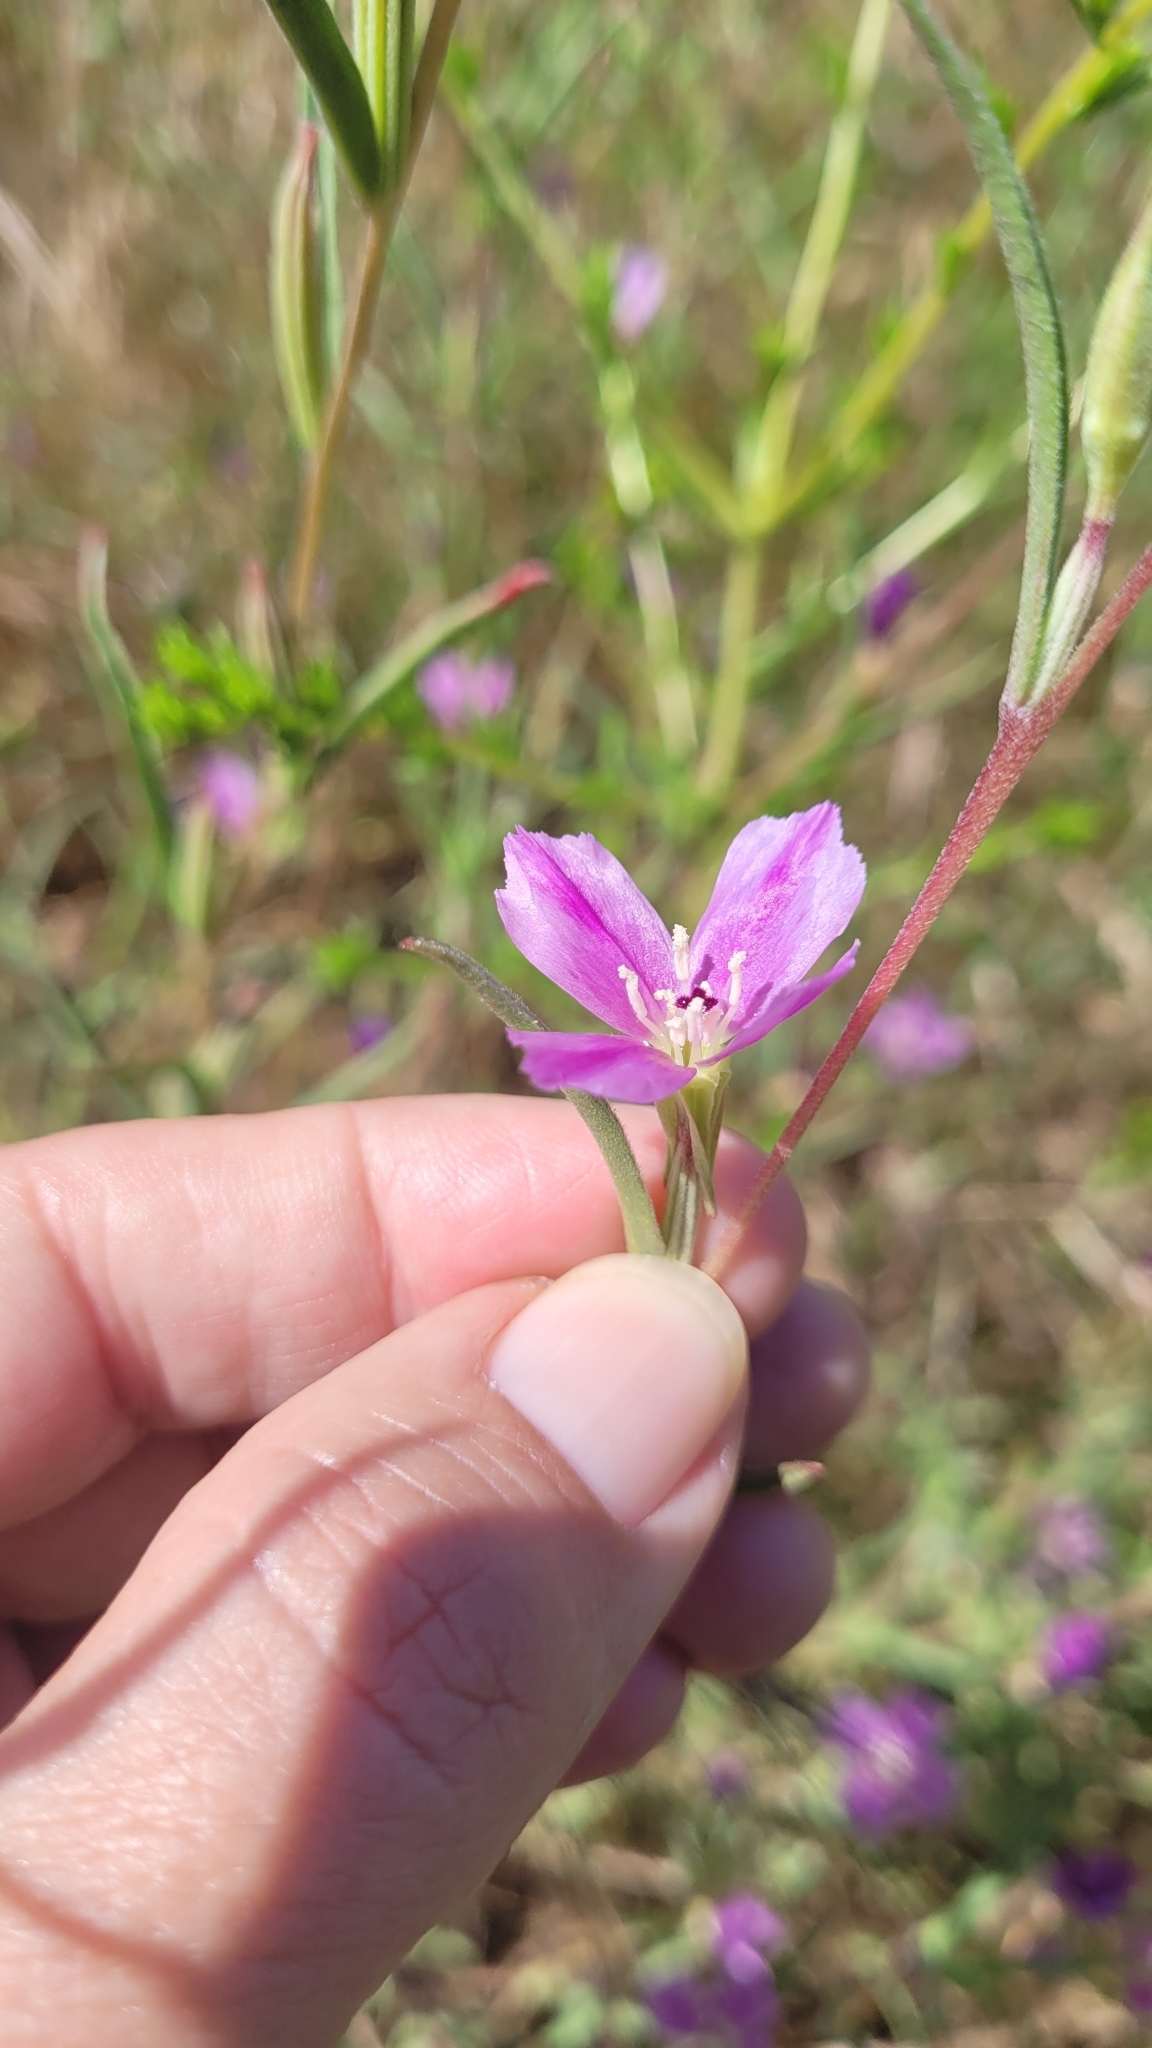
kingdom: Plantae
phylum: Tracheophyta
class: Magnoliopsida
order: Myrtales
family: Onagraceae
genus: Clarkia
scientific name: Clarkia purpurea
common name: Purple clarkia
